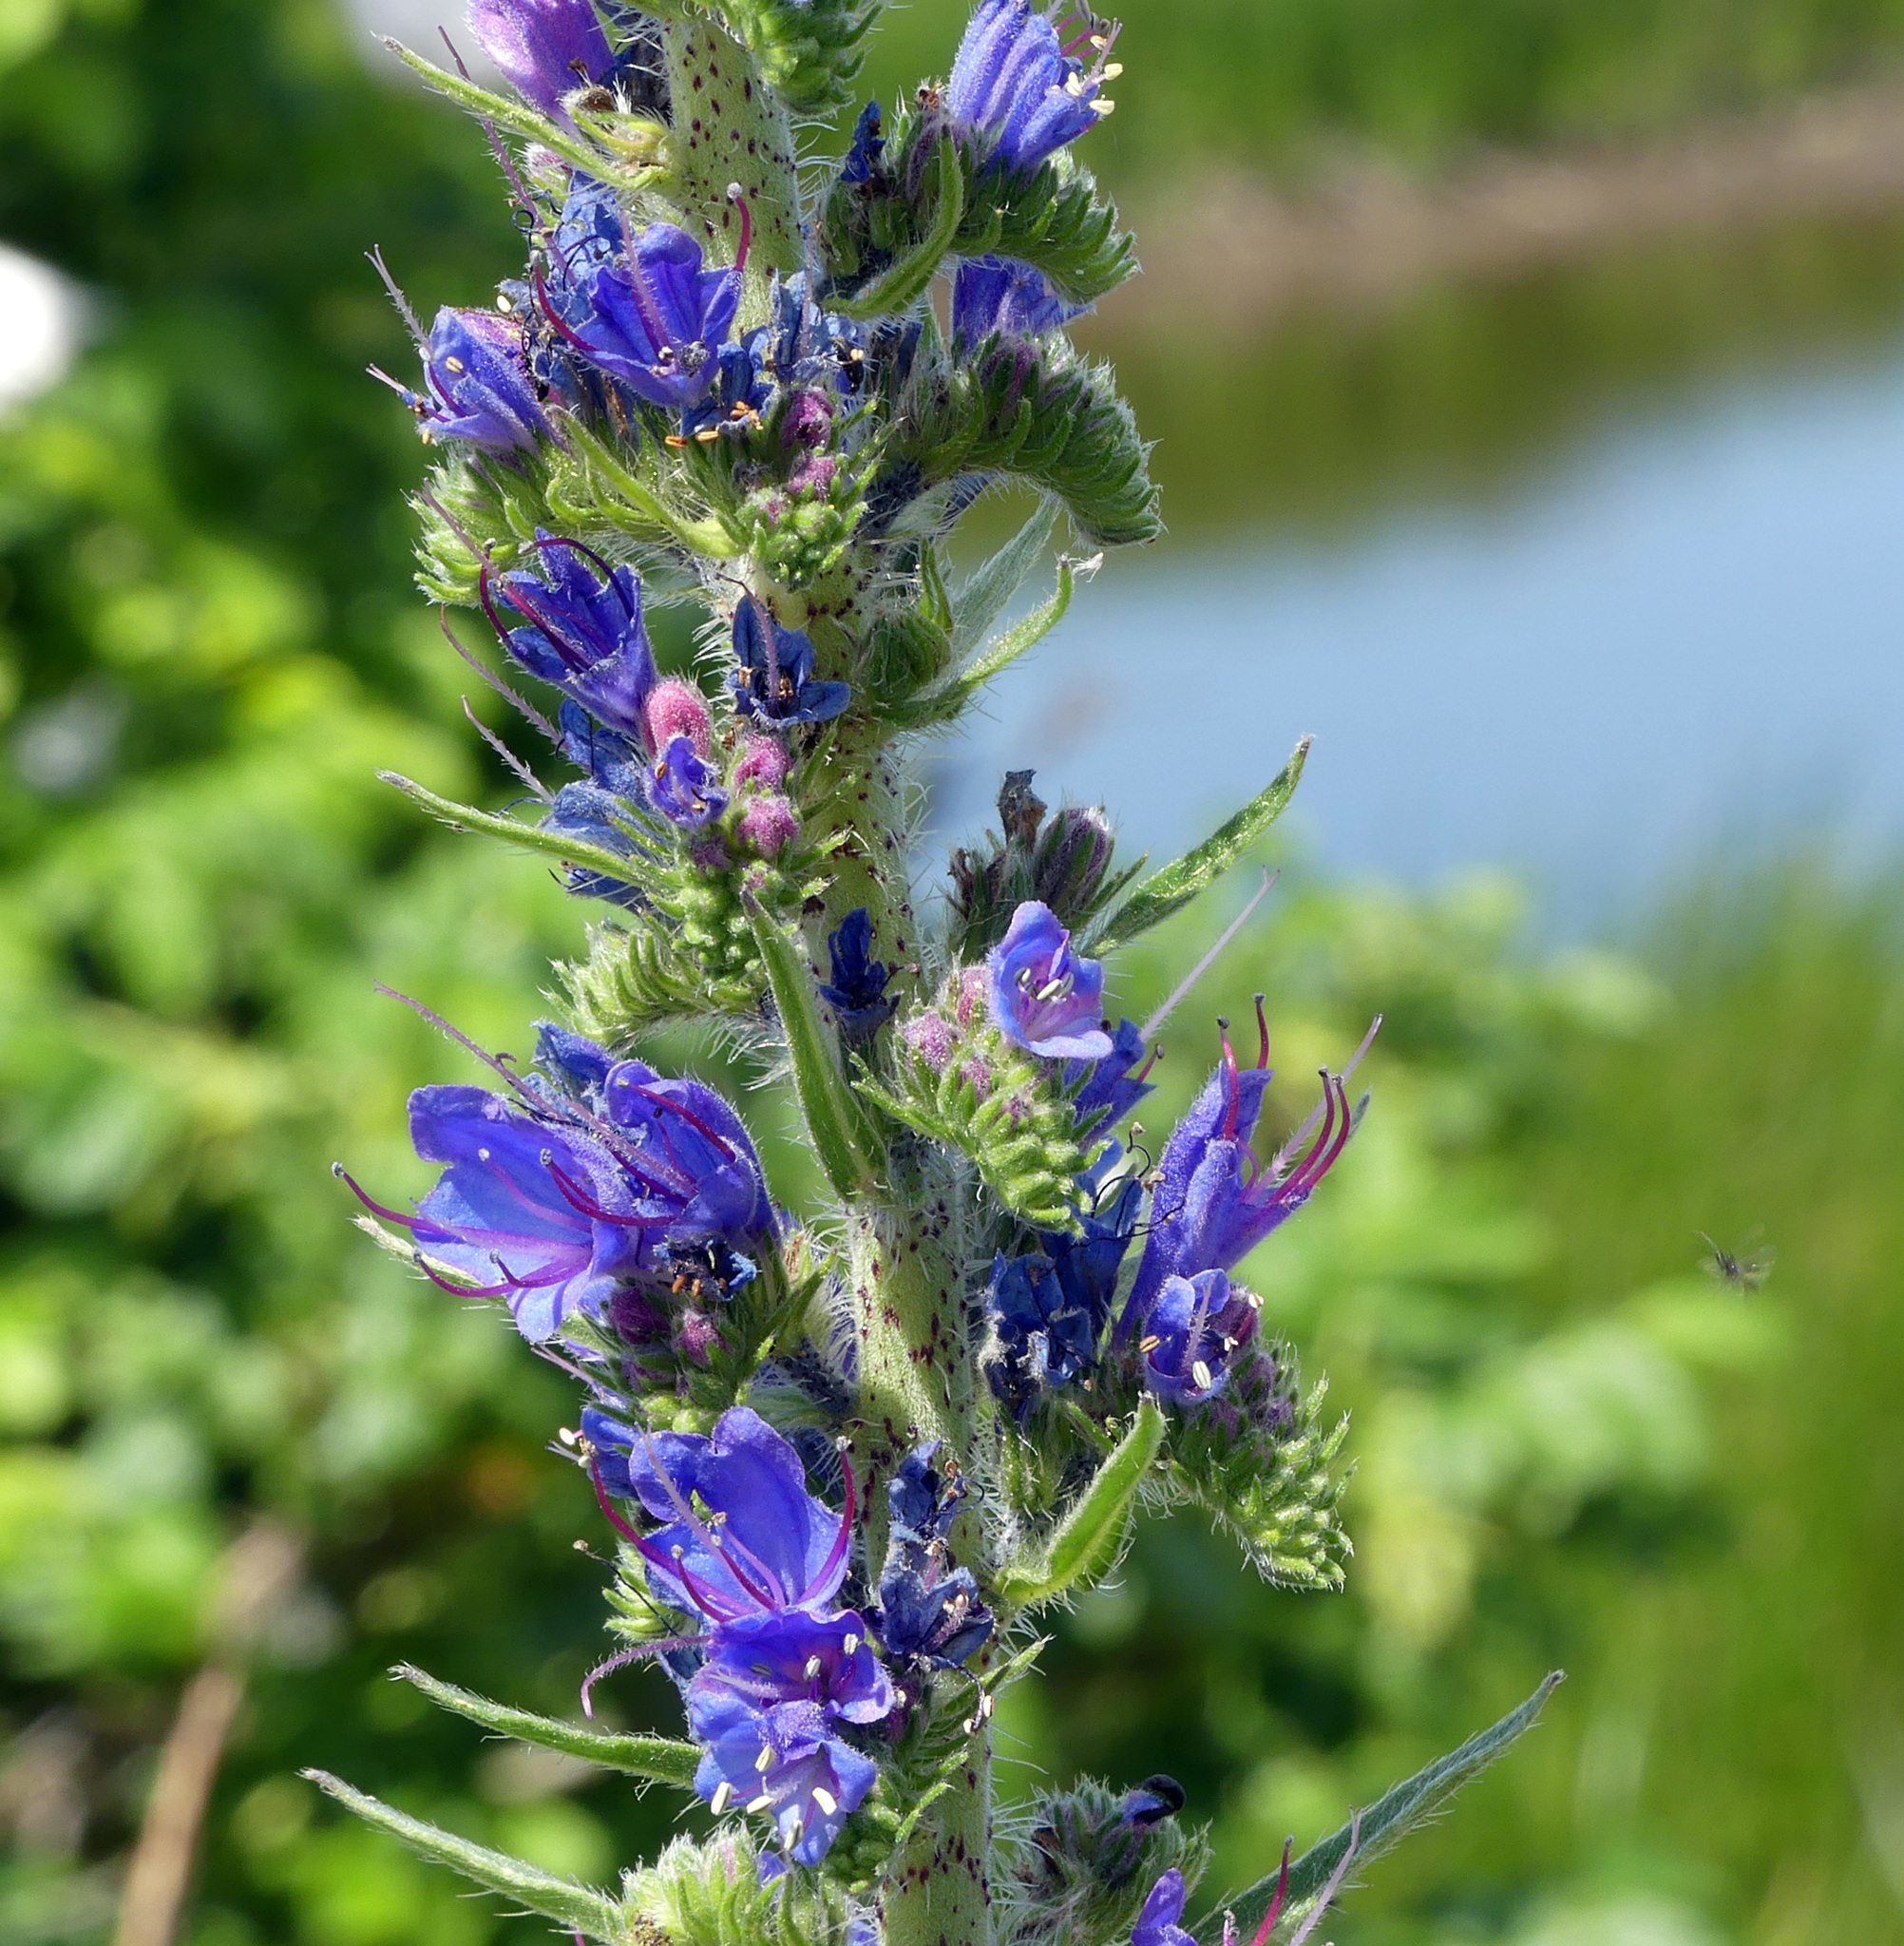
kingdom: Plantae
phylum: Tracheophyta
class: Magnoliopsida
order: Boraginales
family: Boraginaceae
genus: Echium
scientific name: Echium vulgare
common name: Common viper's bugloss
